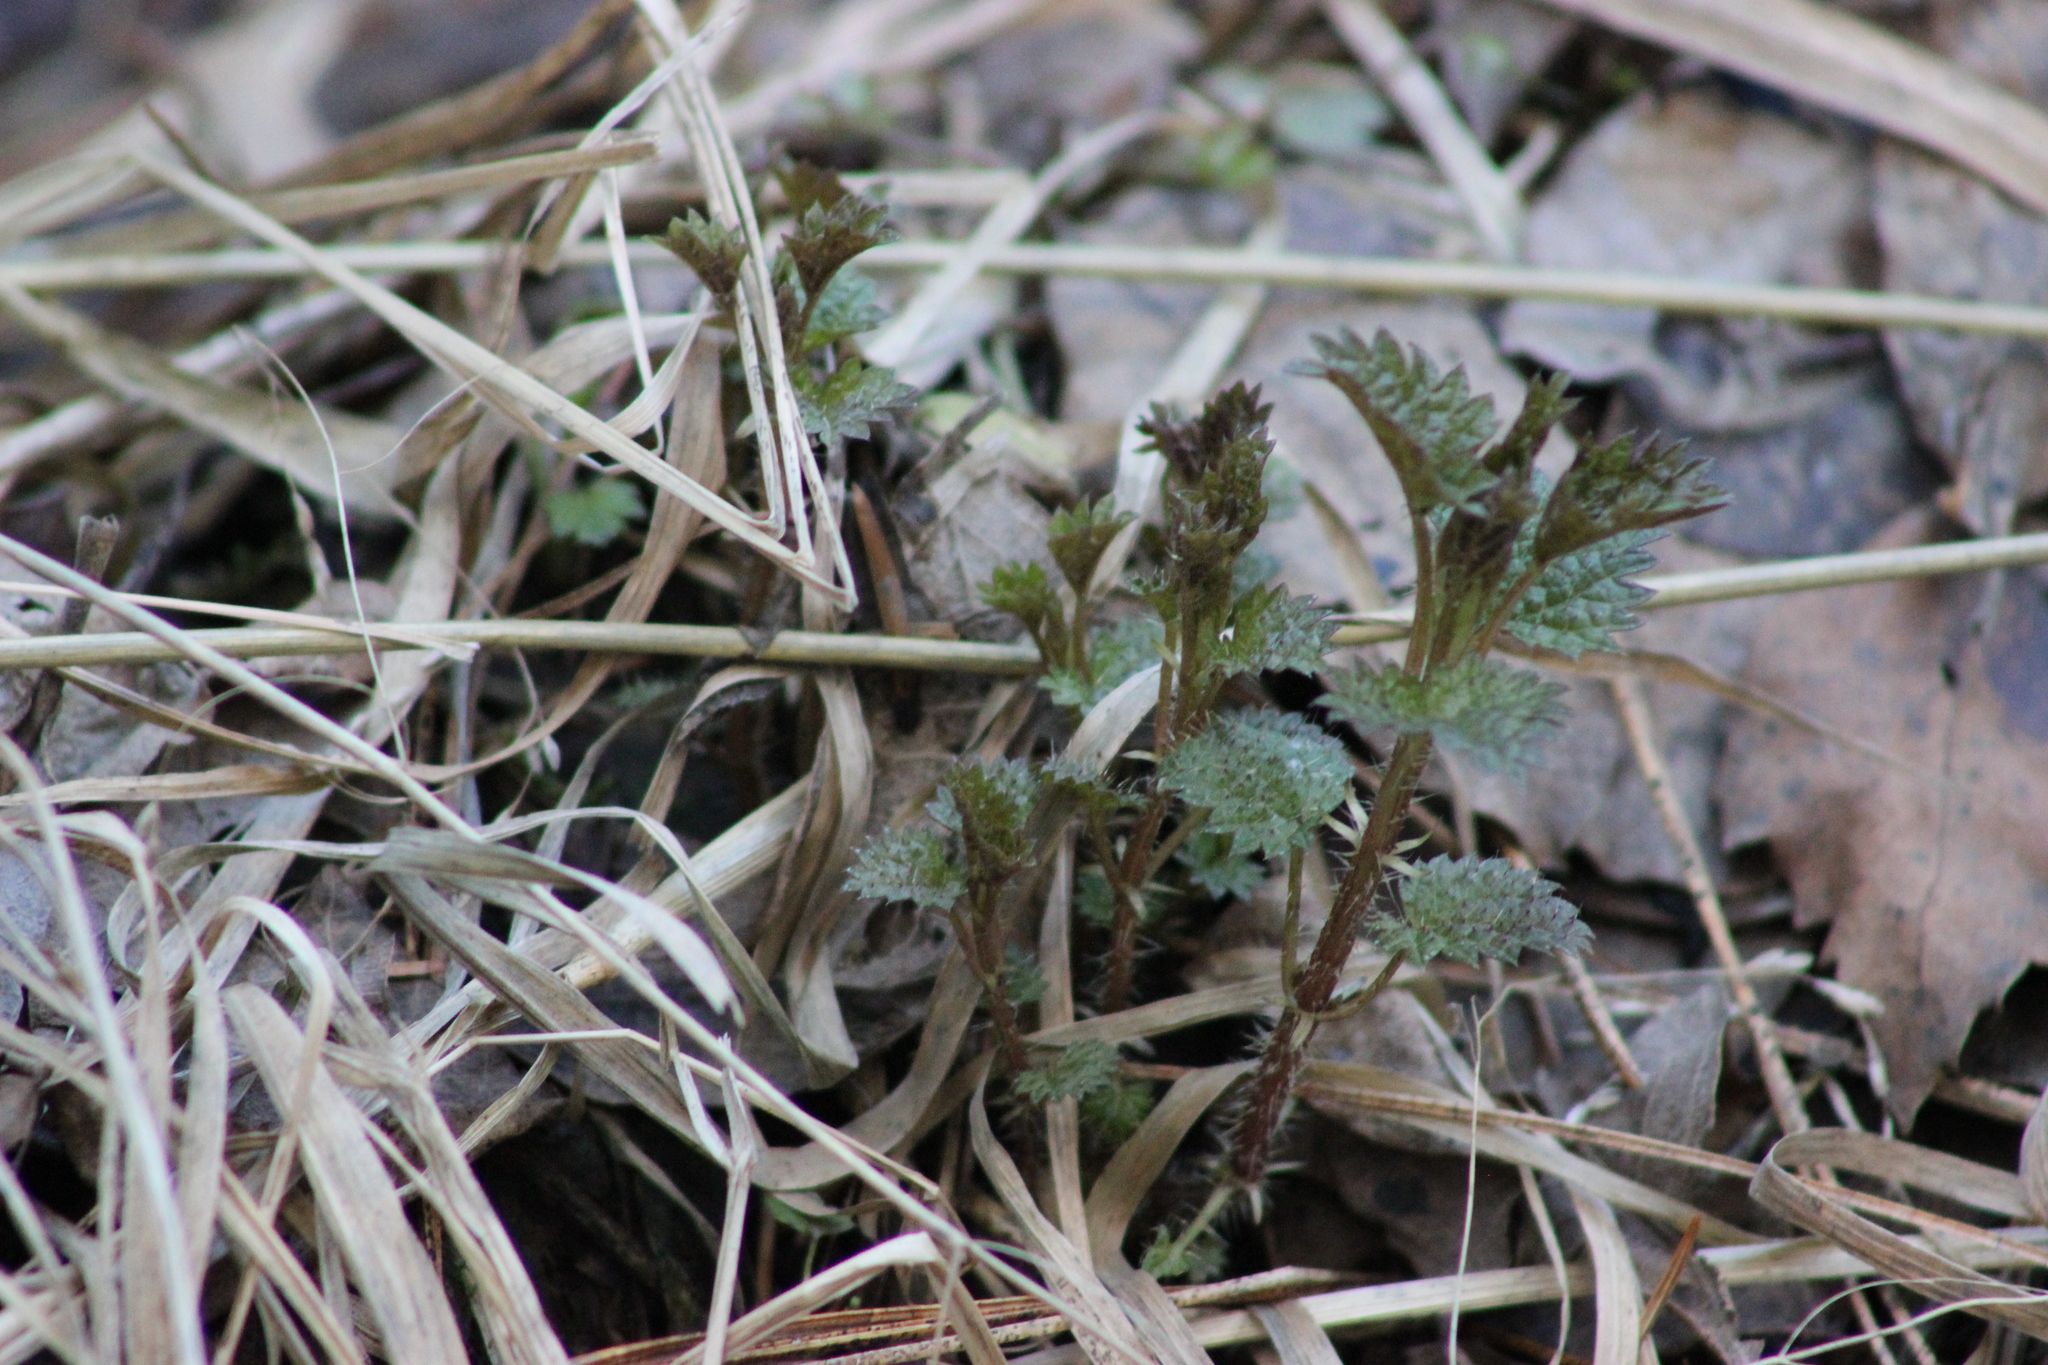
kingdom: Plantae
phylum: Tracheophyta
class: Magnoliopsida
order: Rosales
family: Urticaceae
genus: Urtica
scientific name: Urtica dioica
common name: Common nettle
